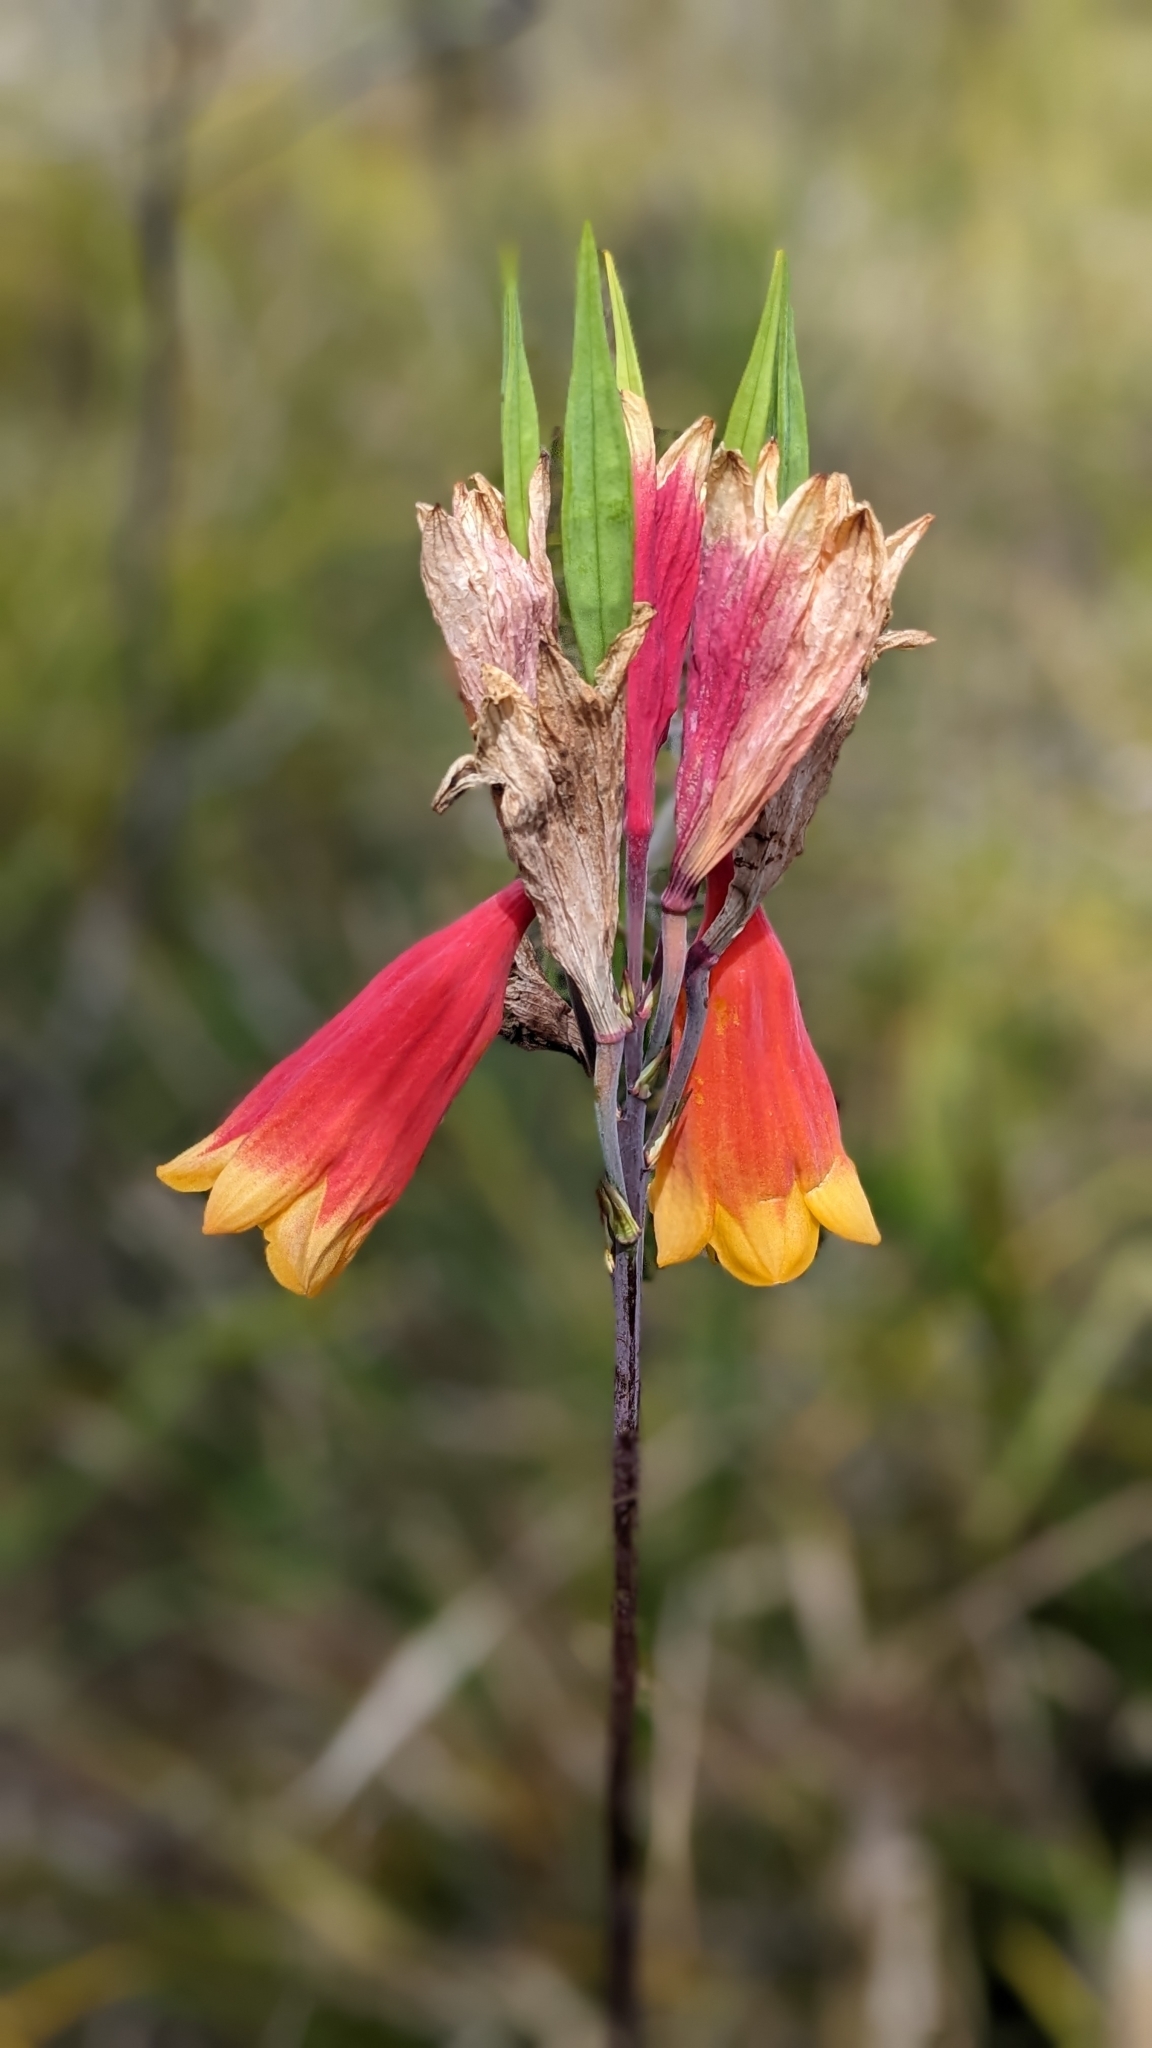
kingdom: Plantae
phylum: Tracheophyta
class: Liliopsida
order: Asparagales
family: Blandfordiaceae
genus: Blandfordia
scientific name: Blandfordia grandiflora
